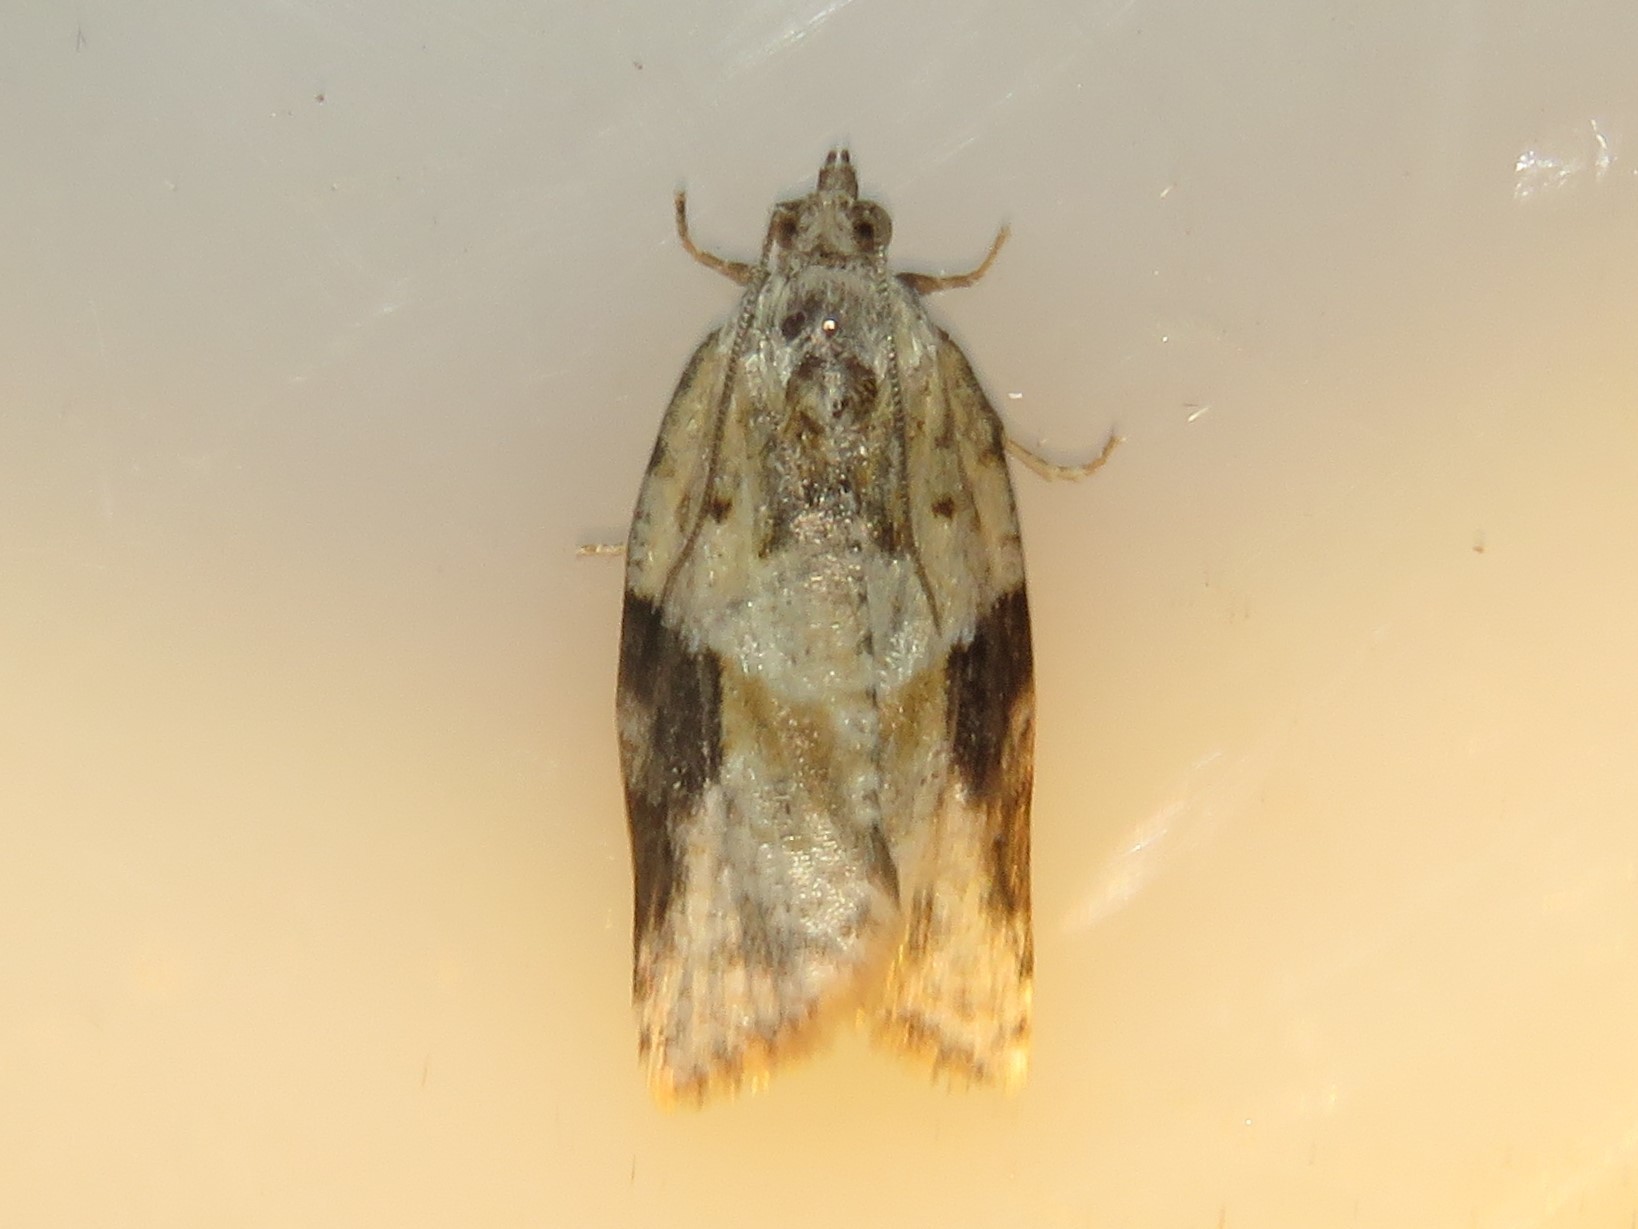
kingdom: Animalia
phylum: Arthropoda
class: Insecta
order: Lepidoptera
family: Tortricidae
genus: Argyrotaenia
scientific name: Argyrotaenia mariana
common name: Gray-banded leafroller moth
